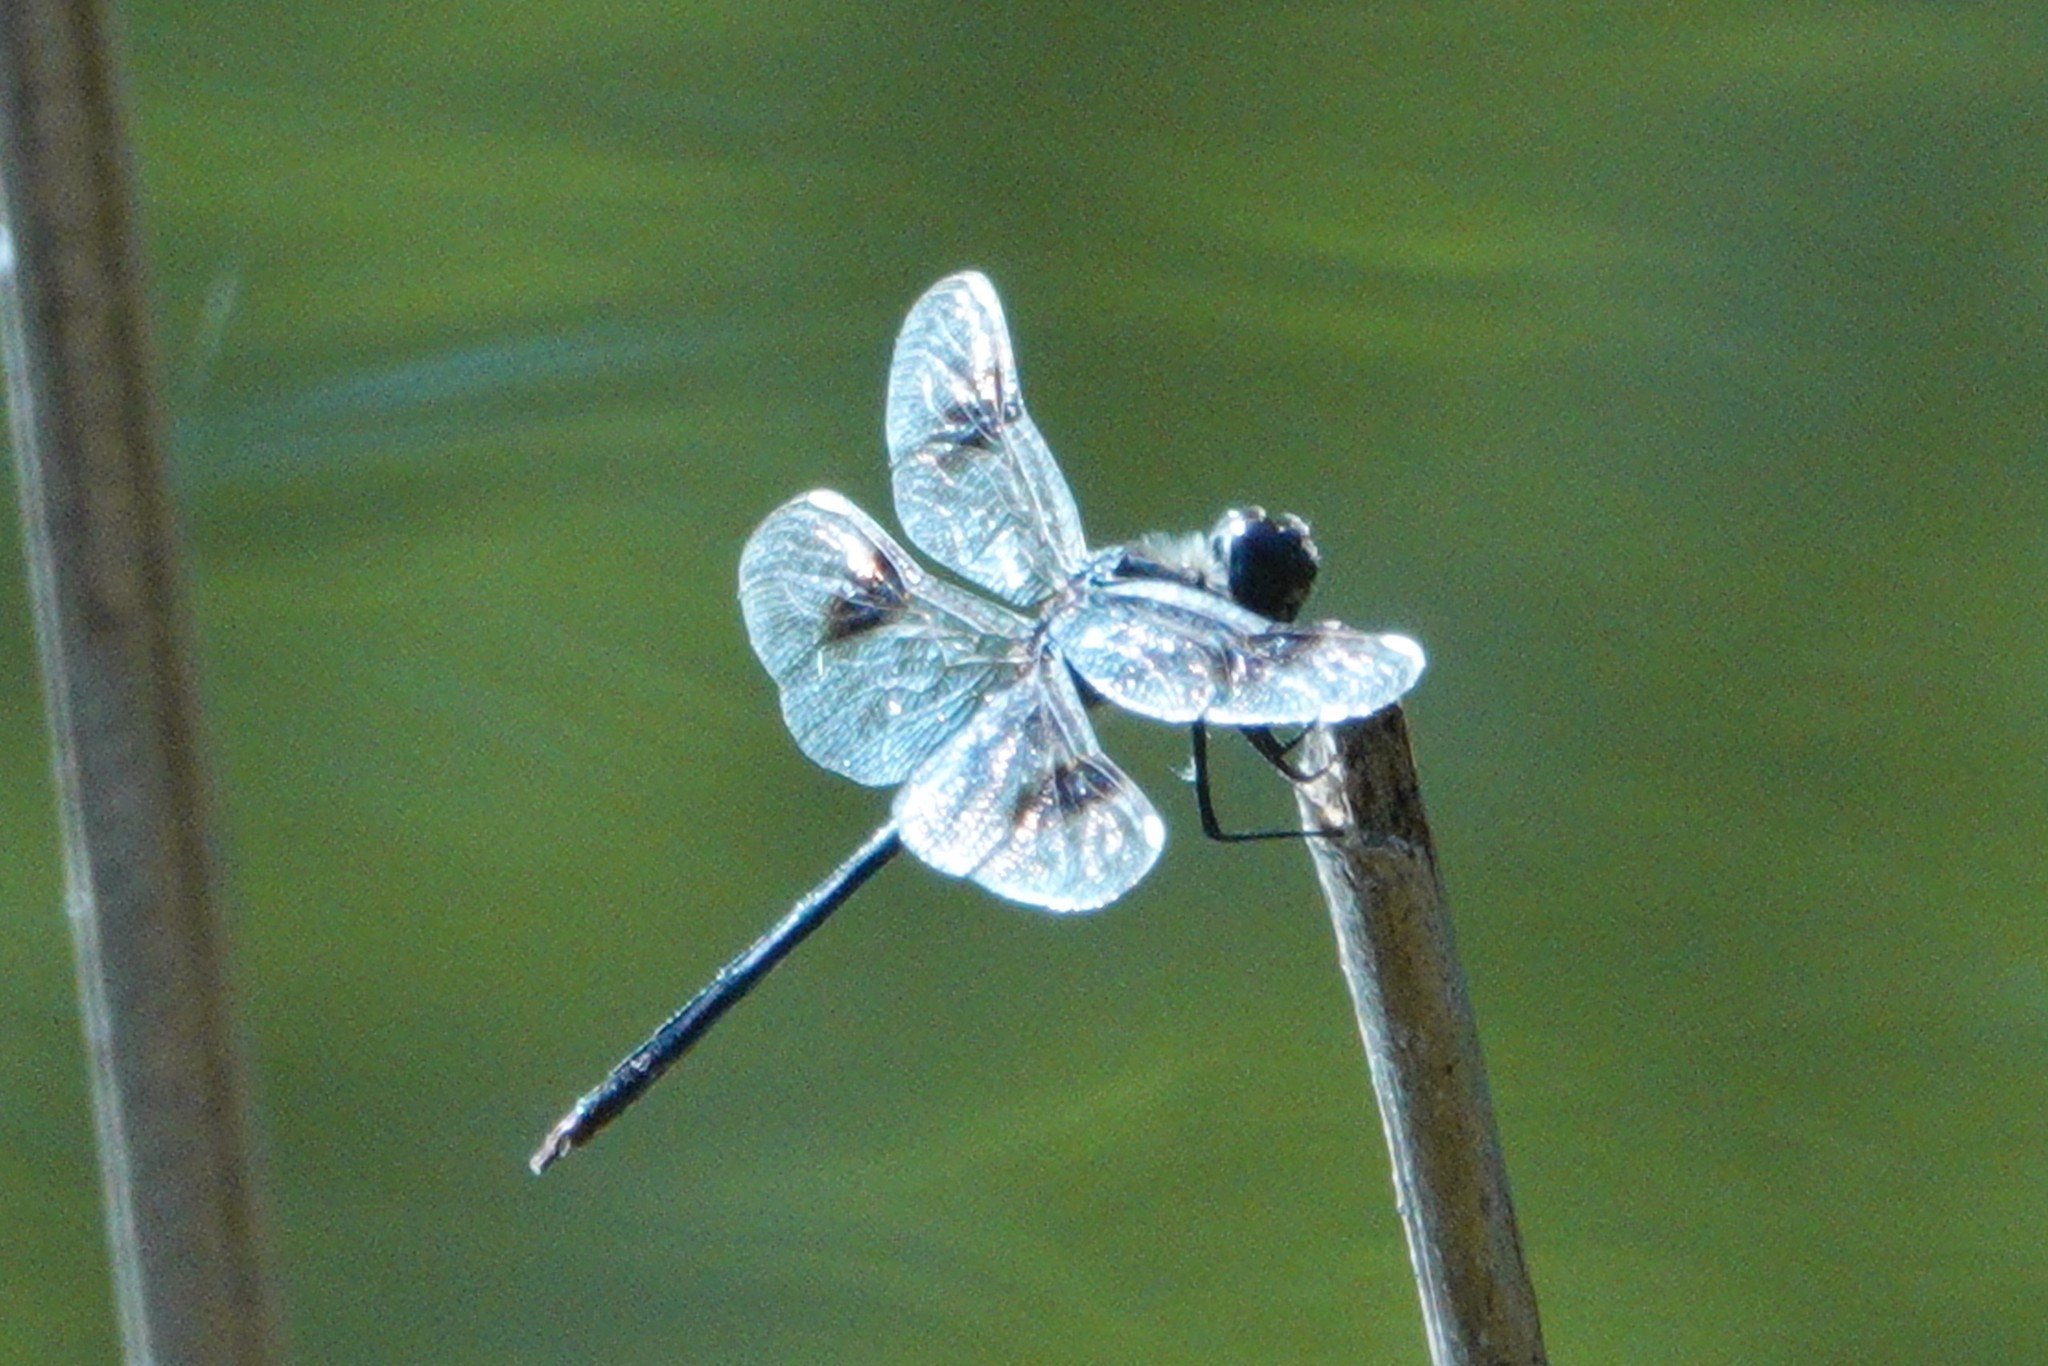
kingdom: Animalia
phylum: Arthropoda
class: Insecta
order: Odonata
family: Libellulidae
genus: Brachymesia
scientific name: Brachymesia gravida
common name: Four-spotted pennant
